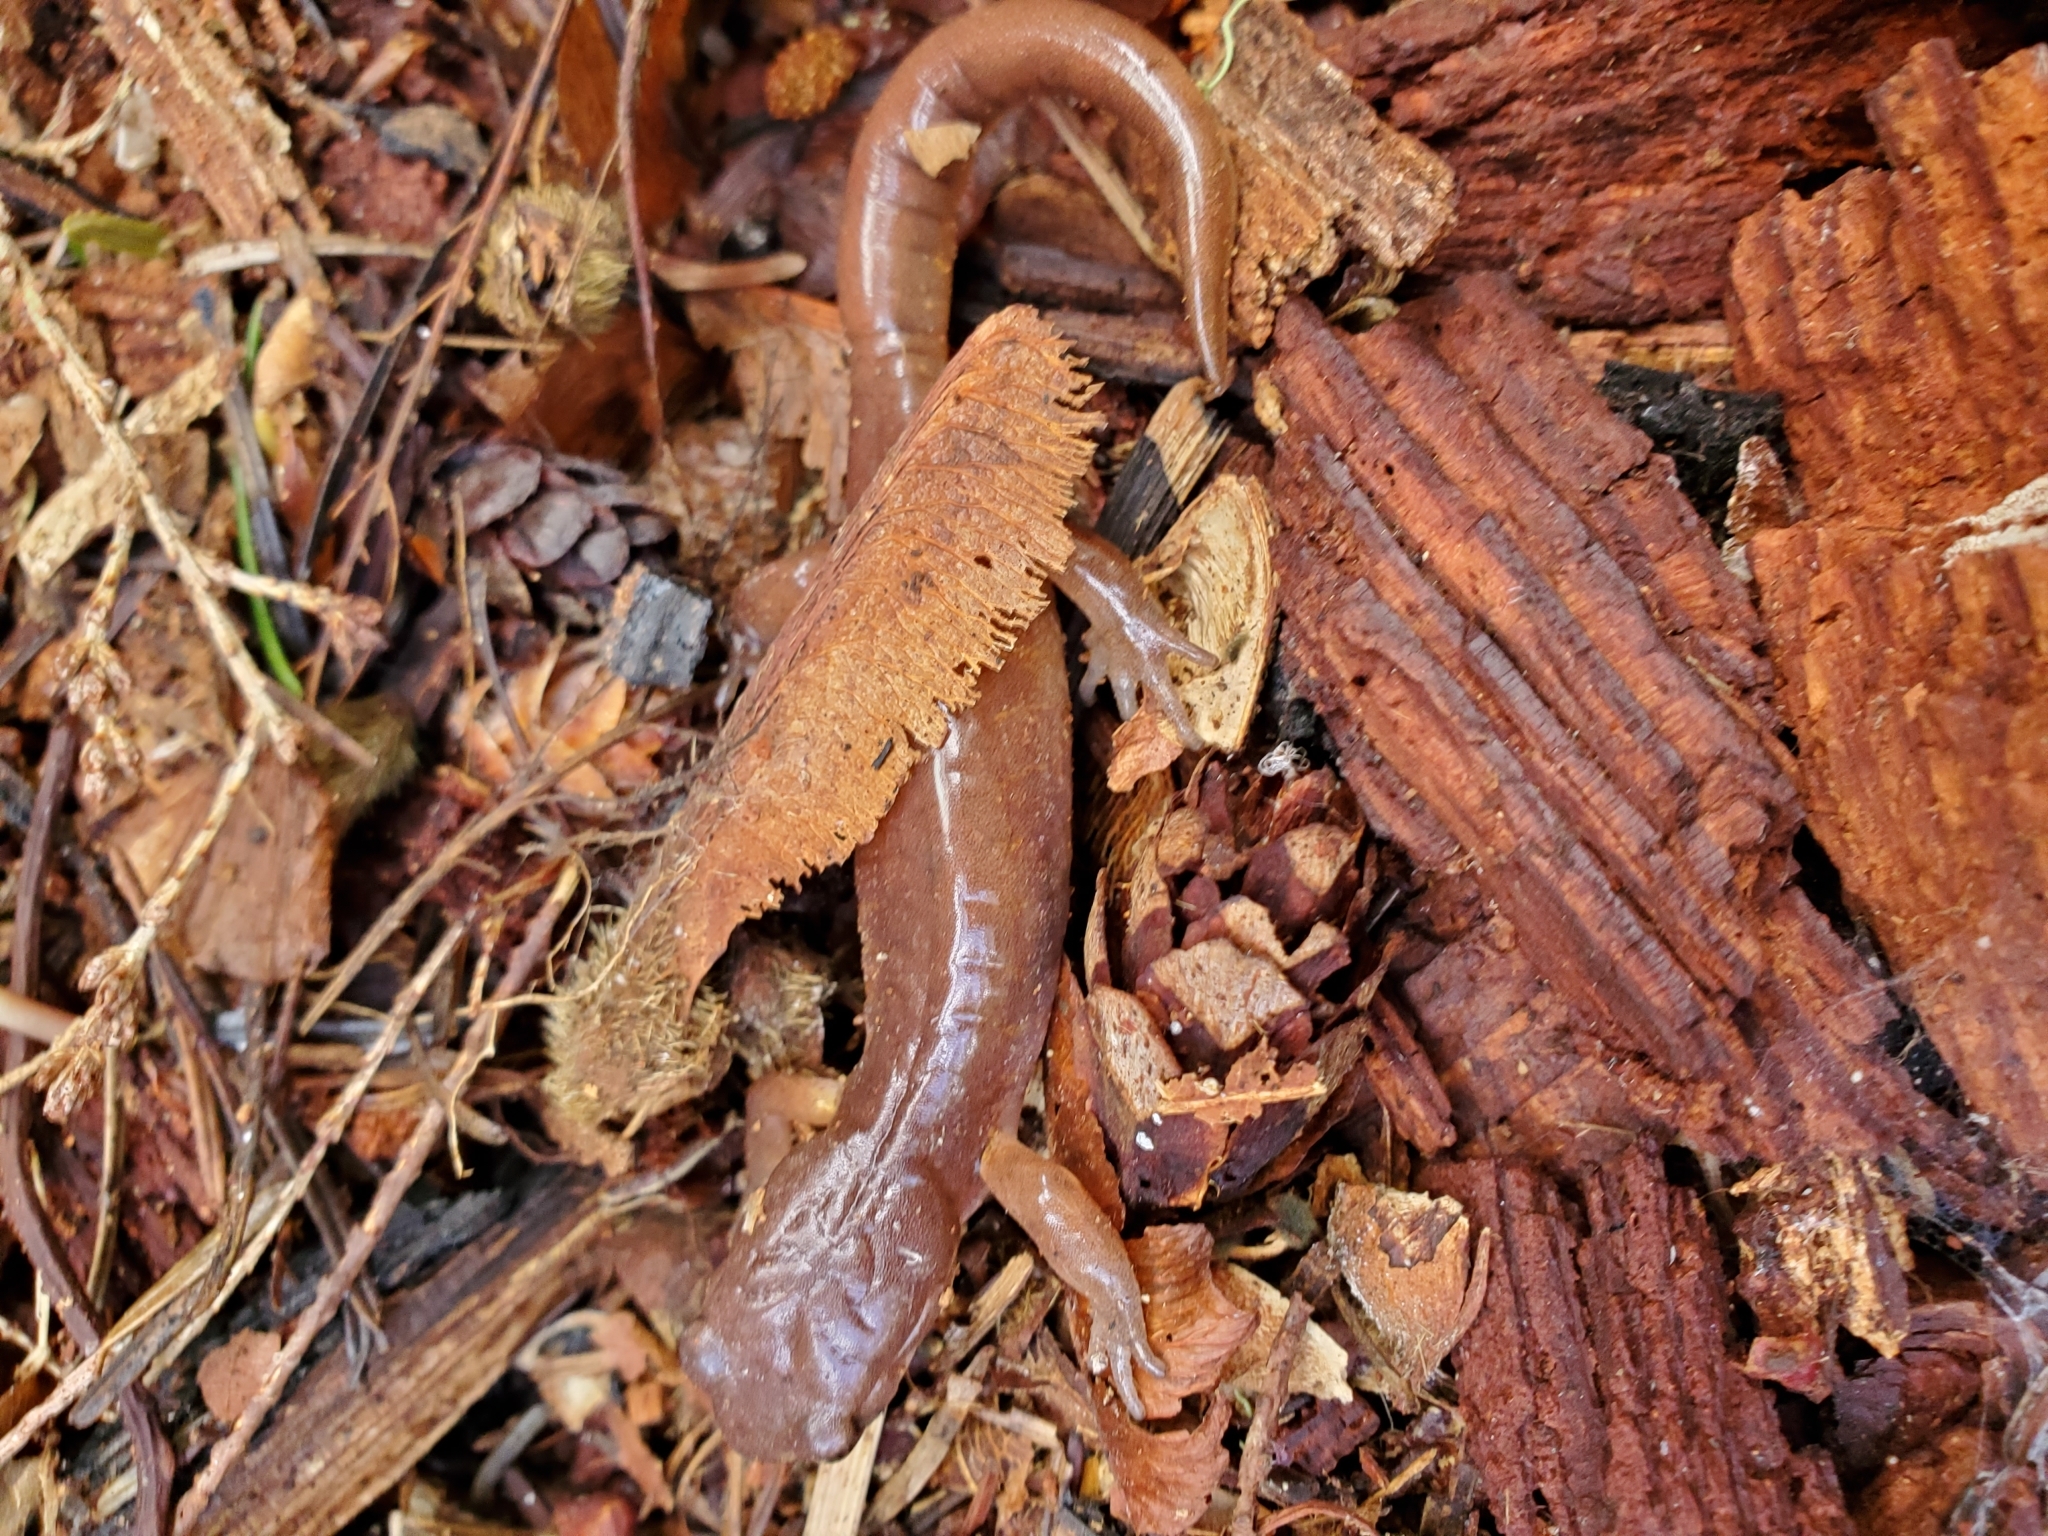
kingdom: Animalia
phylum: Chordata
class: Amphibia
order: Caudata
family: Plethodontidae
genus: Ensatina
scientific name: Ensatina eschscholtzii
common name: Ensatina
